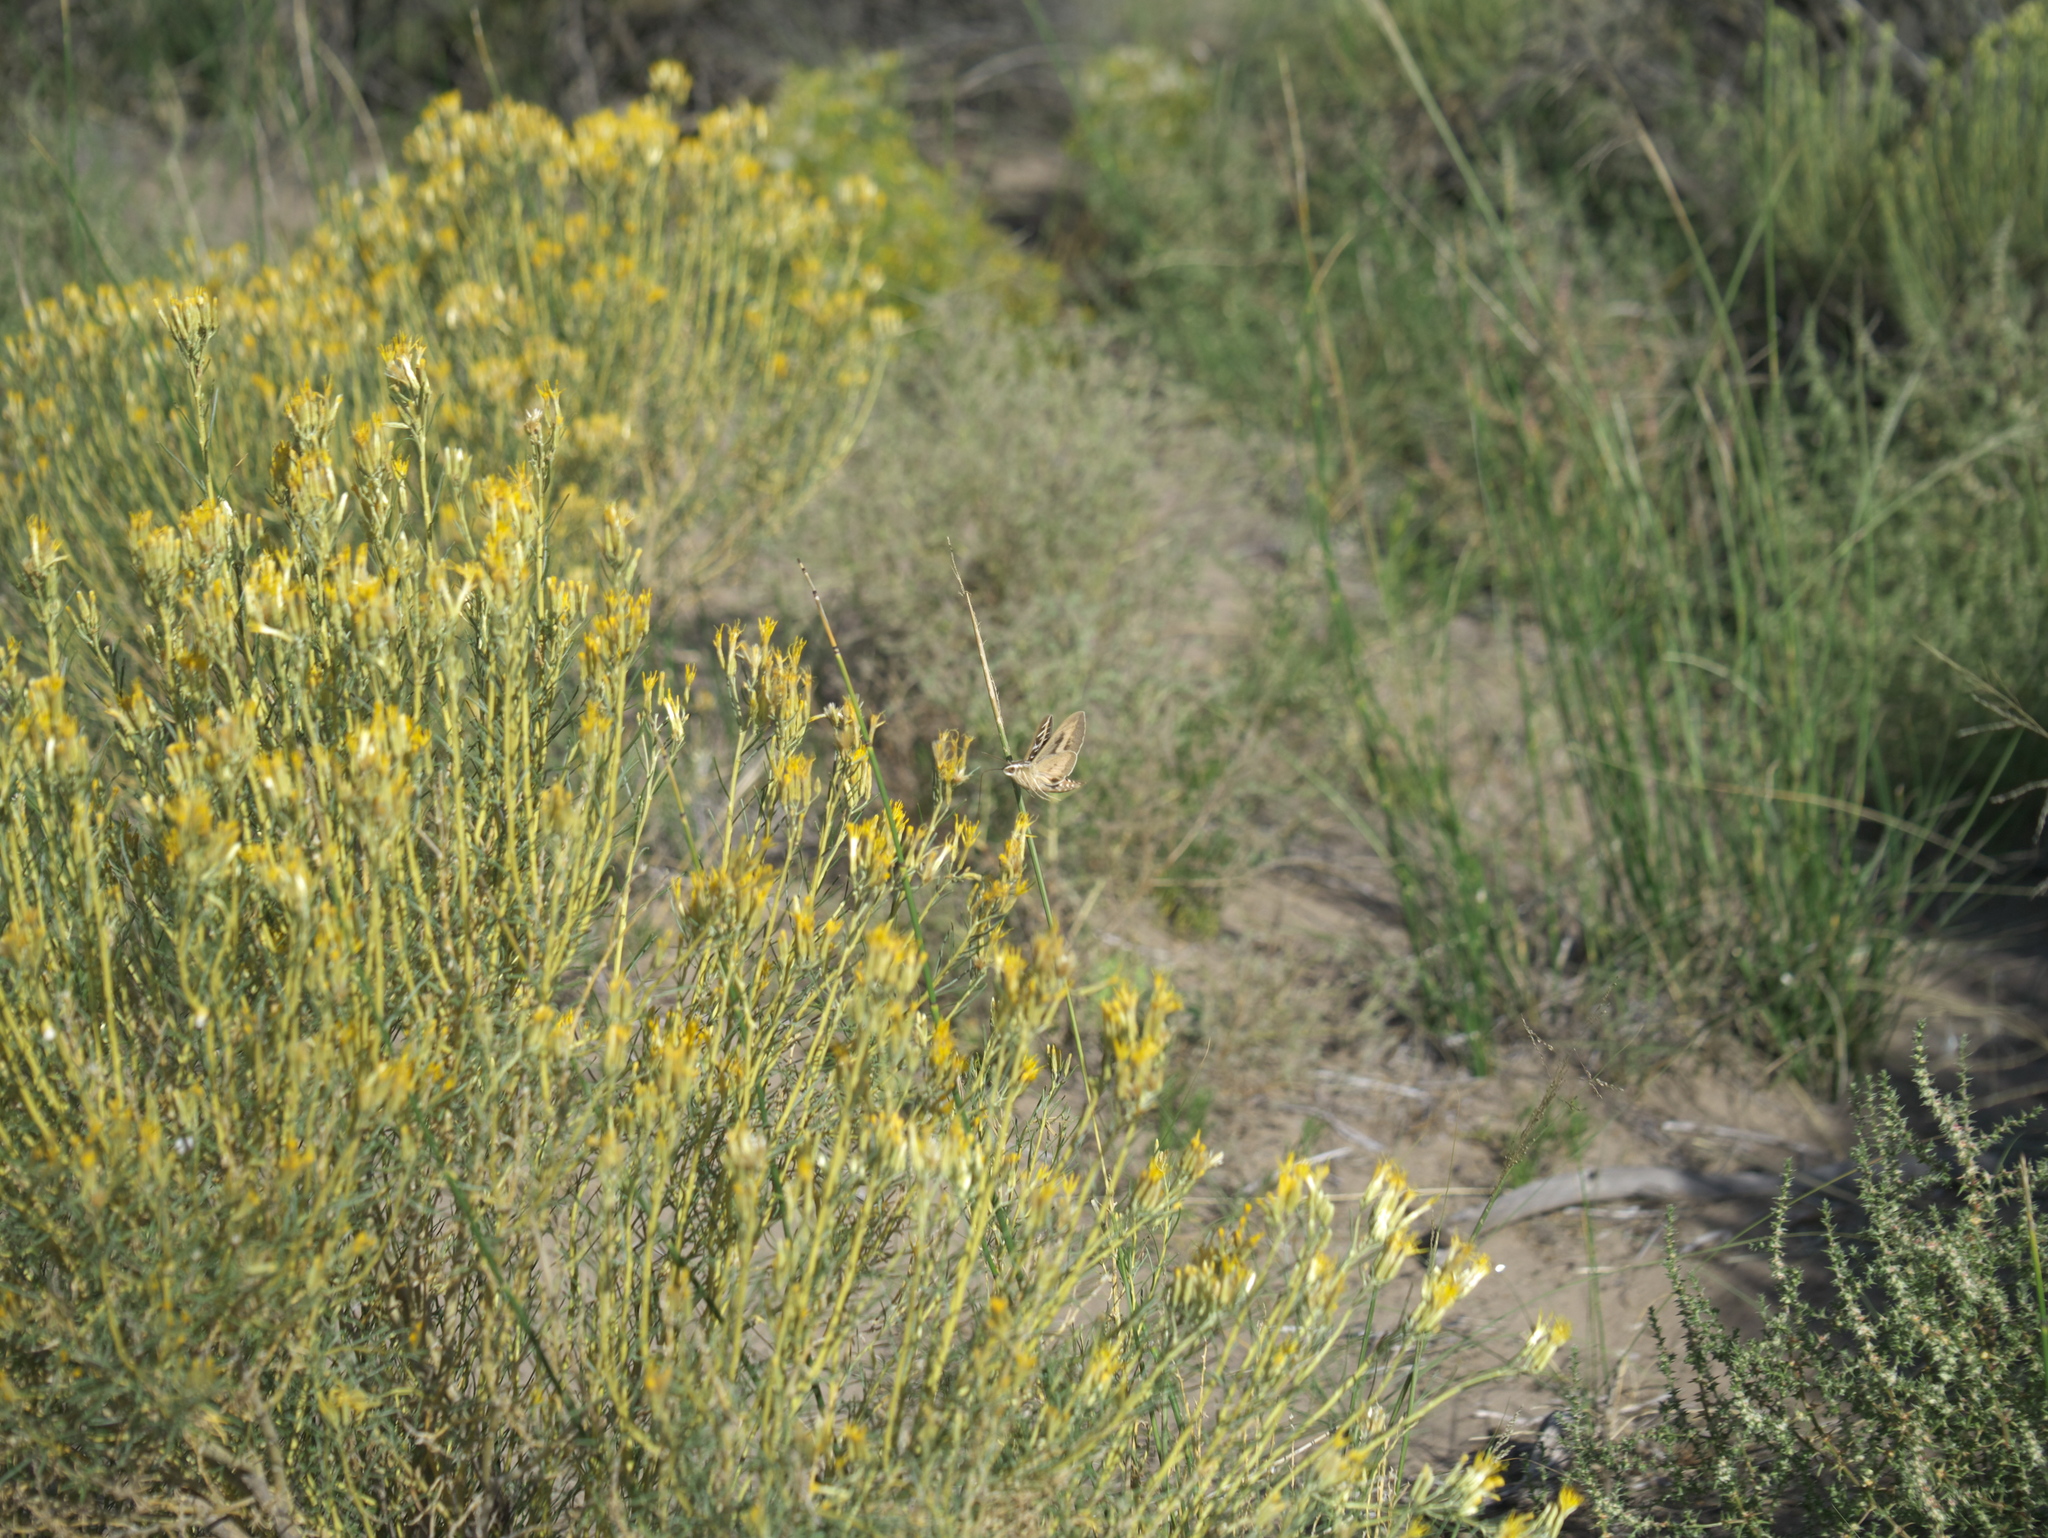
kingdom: Animalia
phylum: Arthropoda
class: Insecta
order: Lepidoptera
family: Sphingidae
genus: Hyles
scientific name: Hyles lineata
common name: White-lined sphinx
